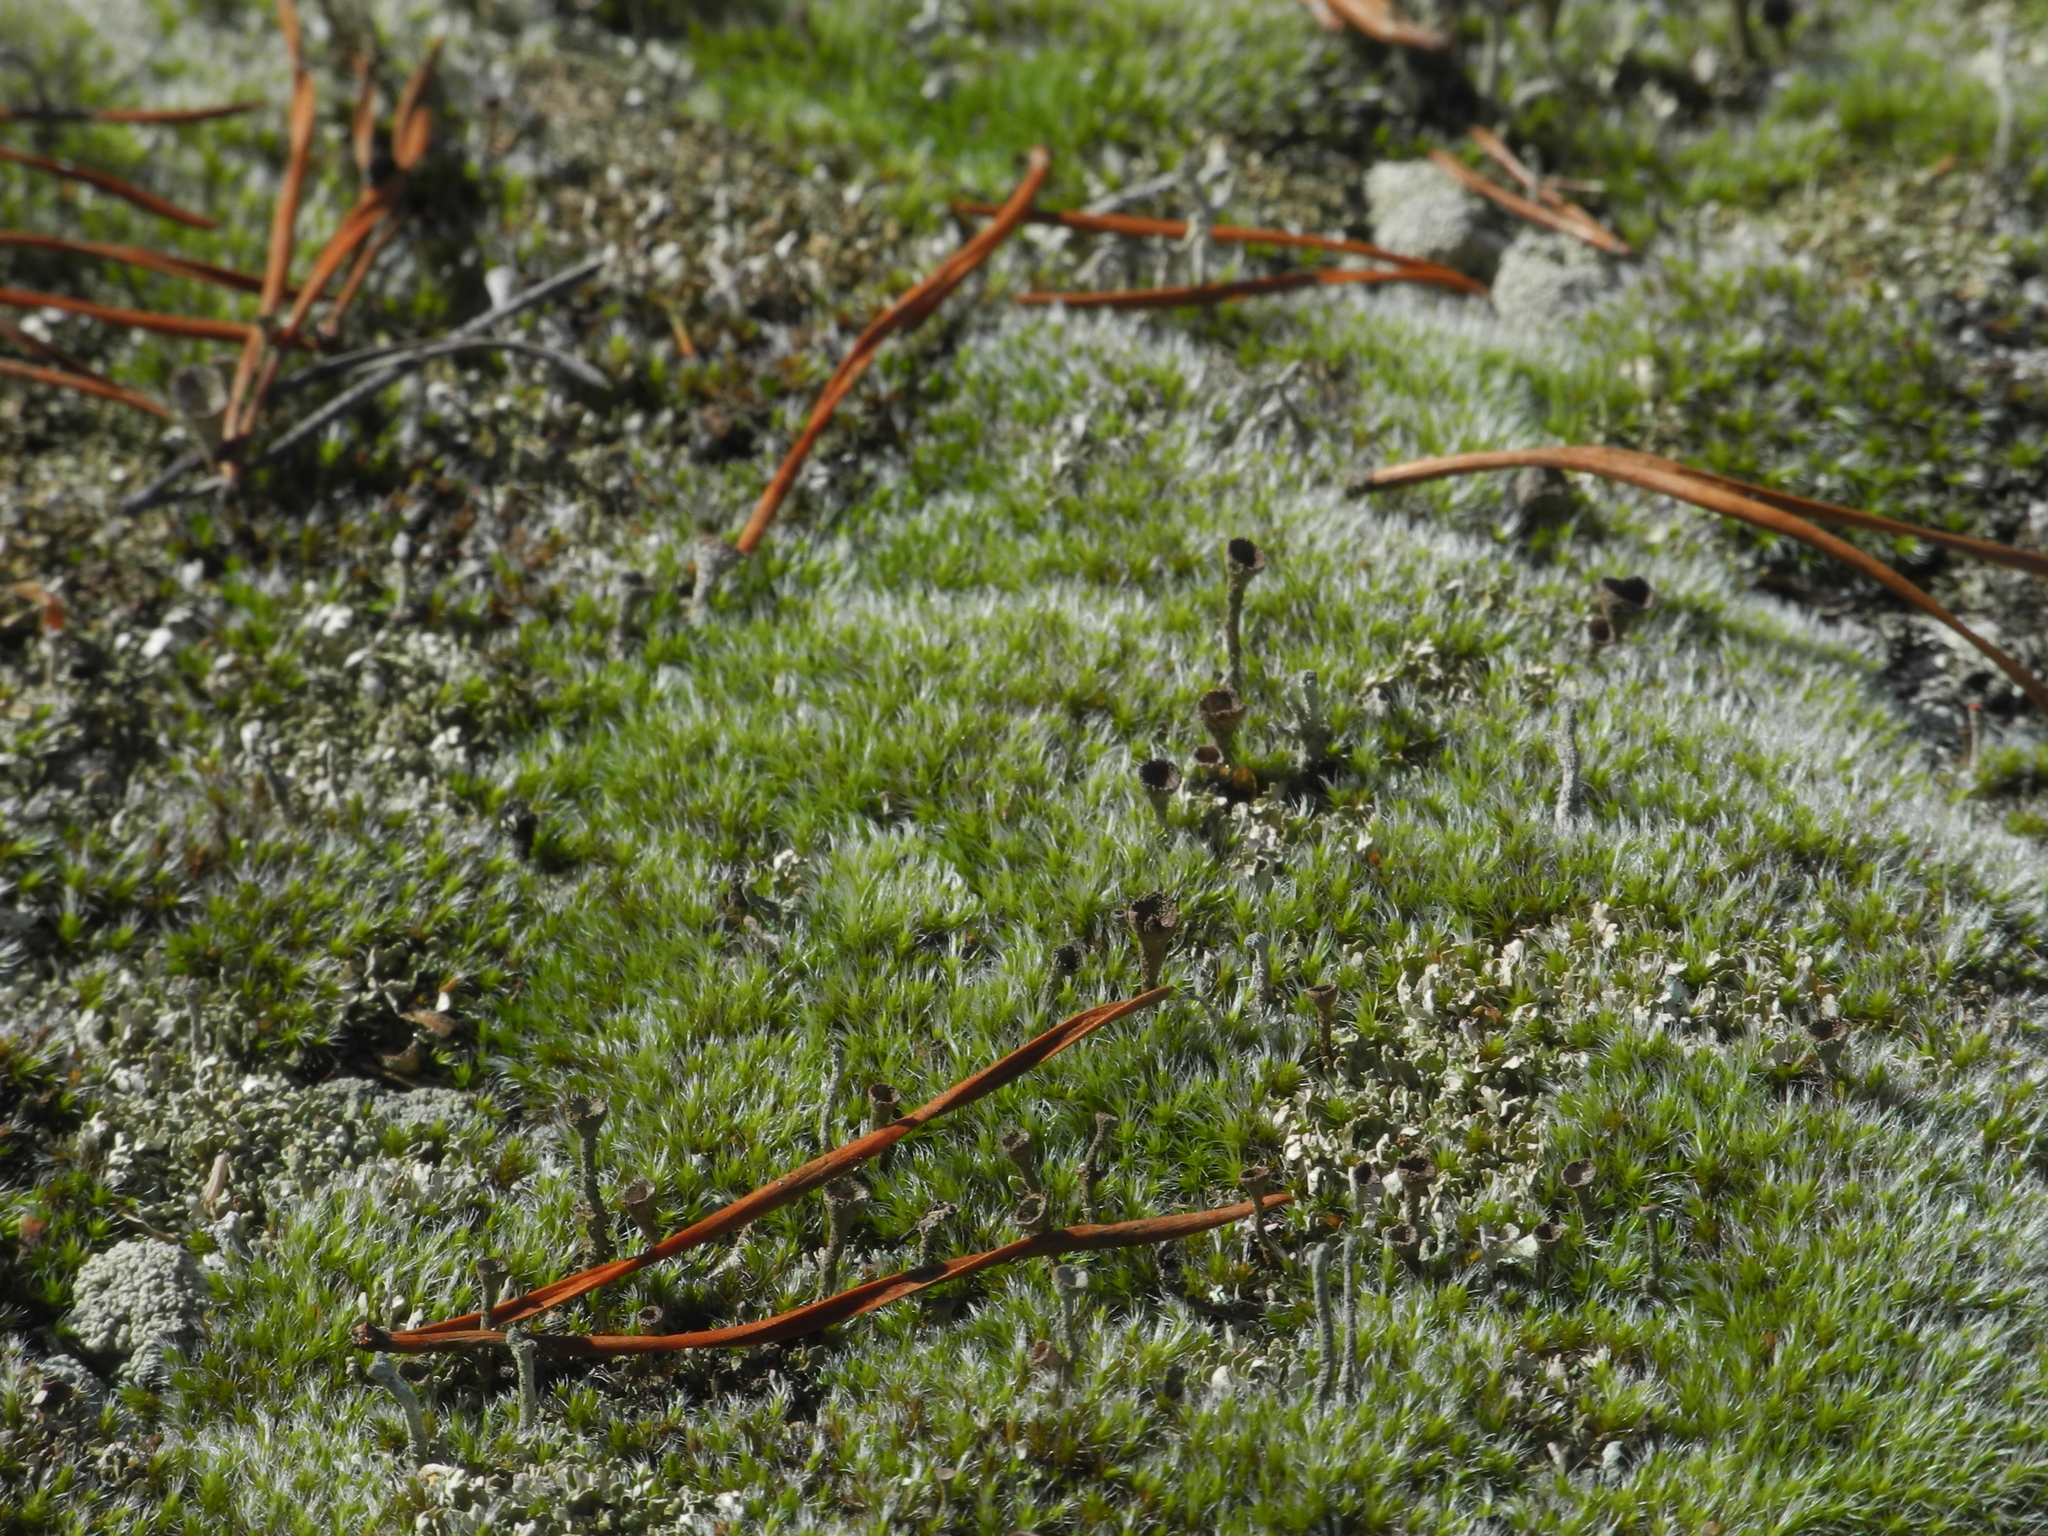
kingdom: Fungi
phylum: Ascomycota
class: Lecanoromycetes
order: Lecanorales
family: Cladoniaceae
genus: Cladonia
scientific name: Cladonia pyxidata
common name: Pebbled pixie cup
